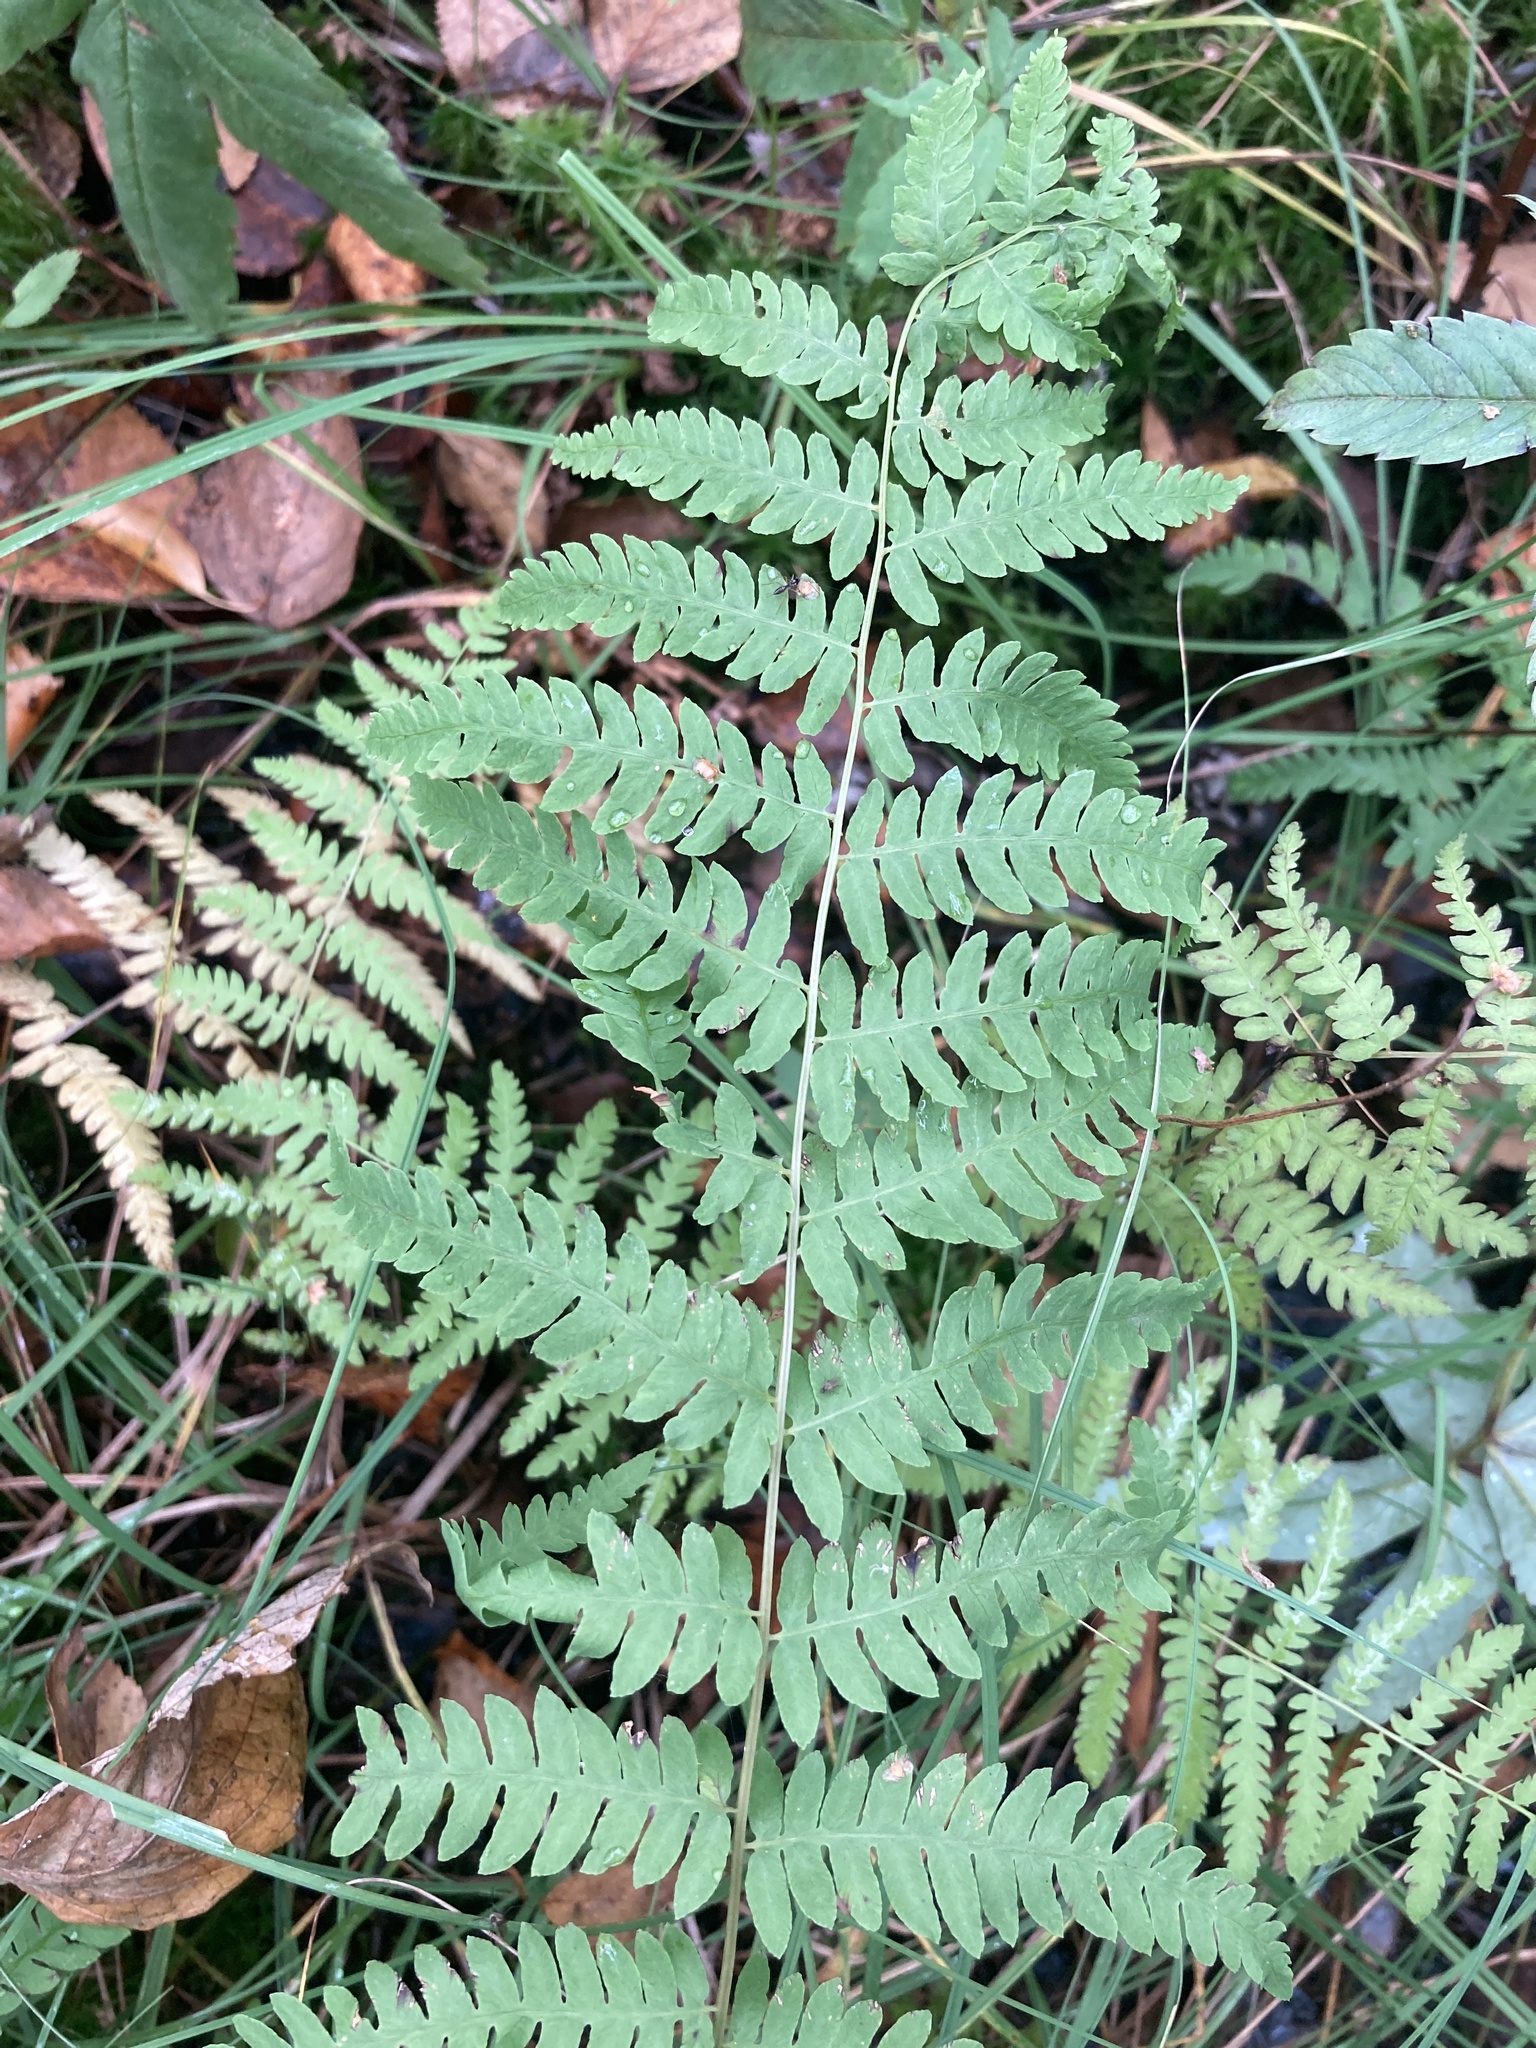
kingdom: Plantae
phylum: Tracheophyta
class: Polypodiopsida
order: Polypodiales
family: Thelypteridaceae
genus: Thelypteris
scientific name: Thelypteris palustris
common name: Marsh fern
